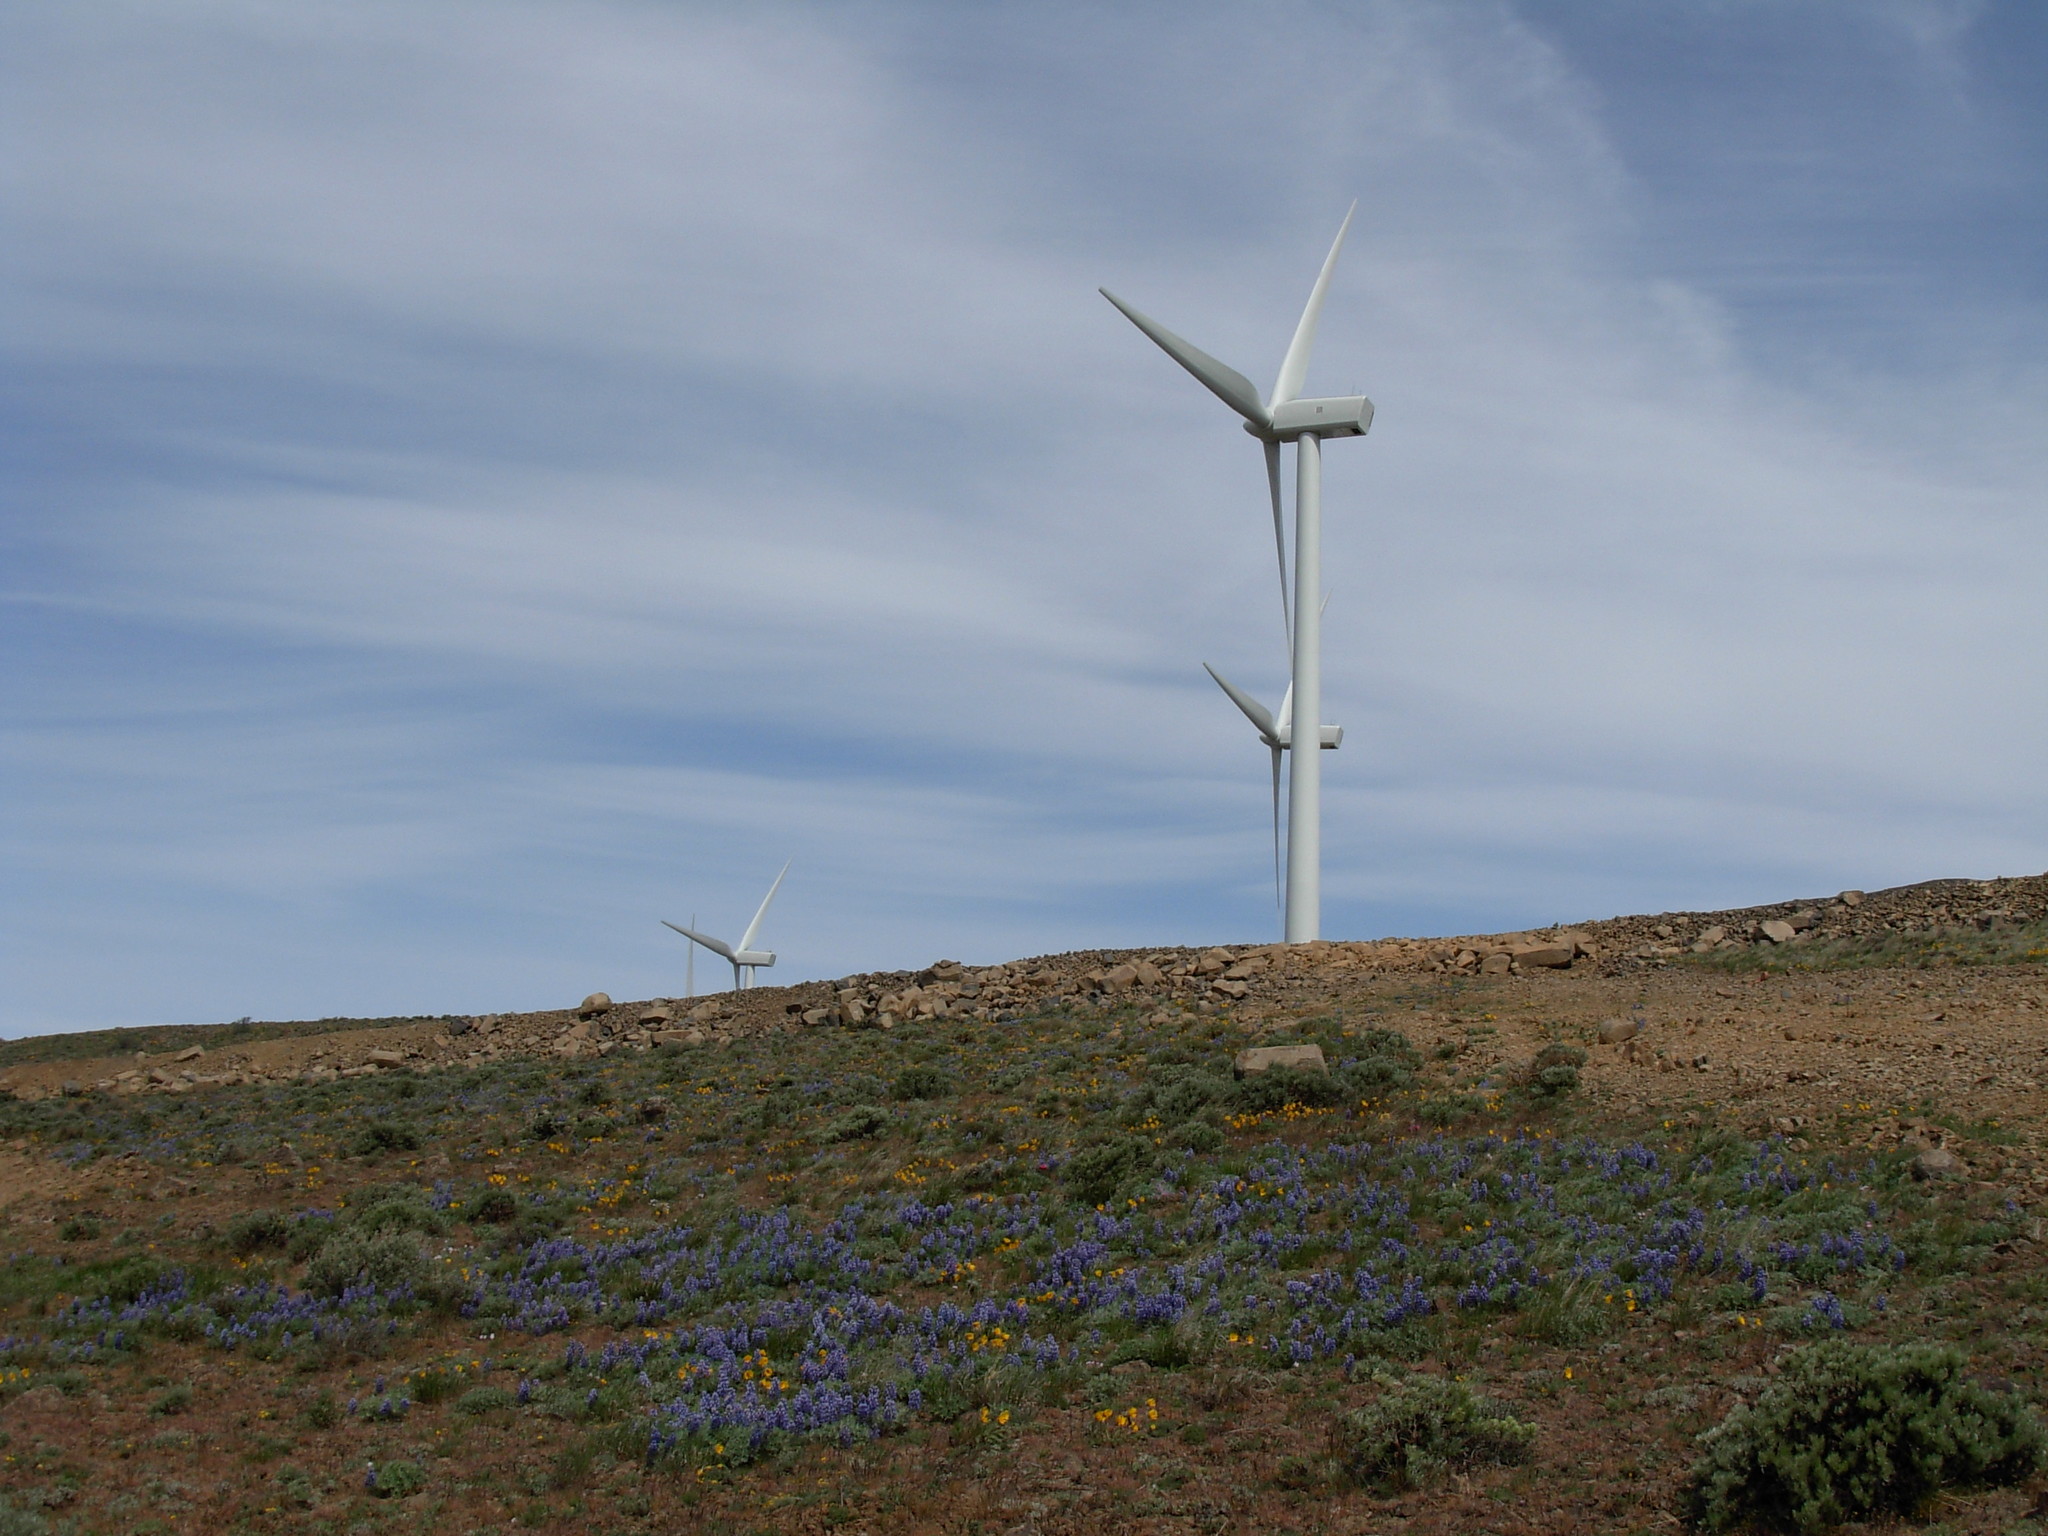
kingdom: Plantae
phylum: Tracheophyta
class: Magnoliopsida
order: Fabales
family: Fabaceae
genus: Lupinus
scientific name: Lupinus saxosus
